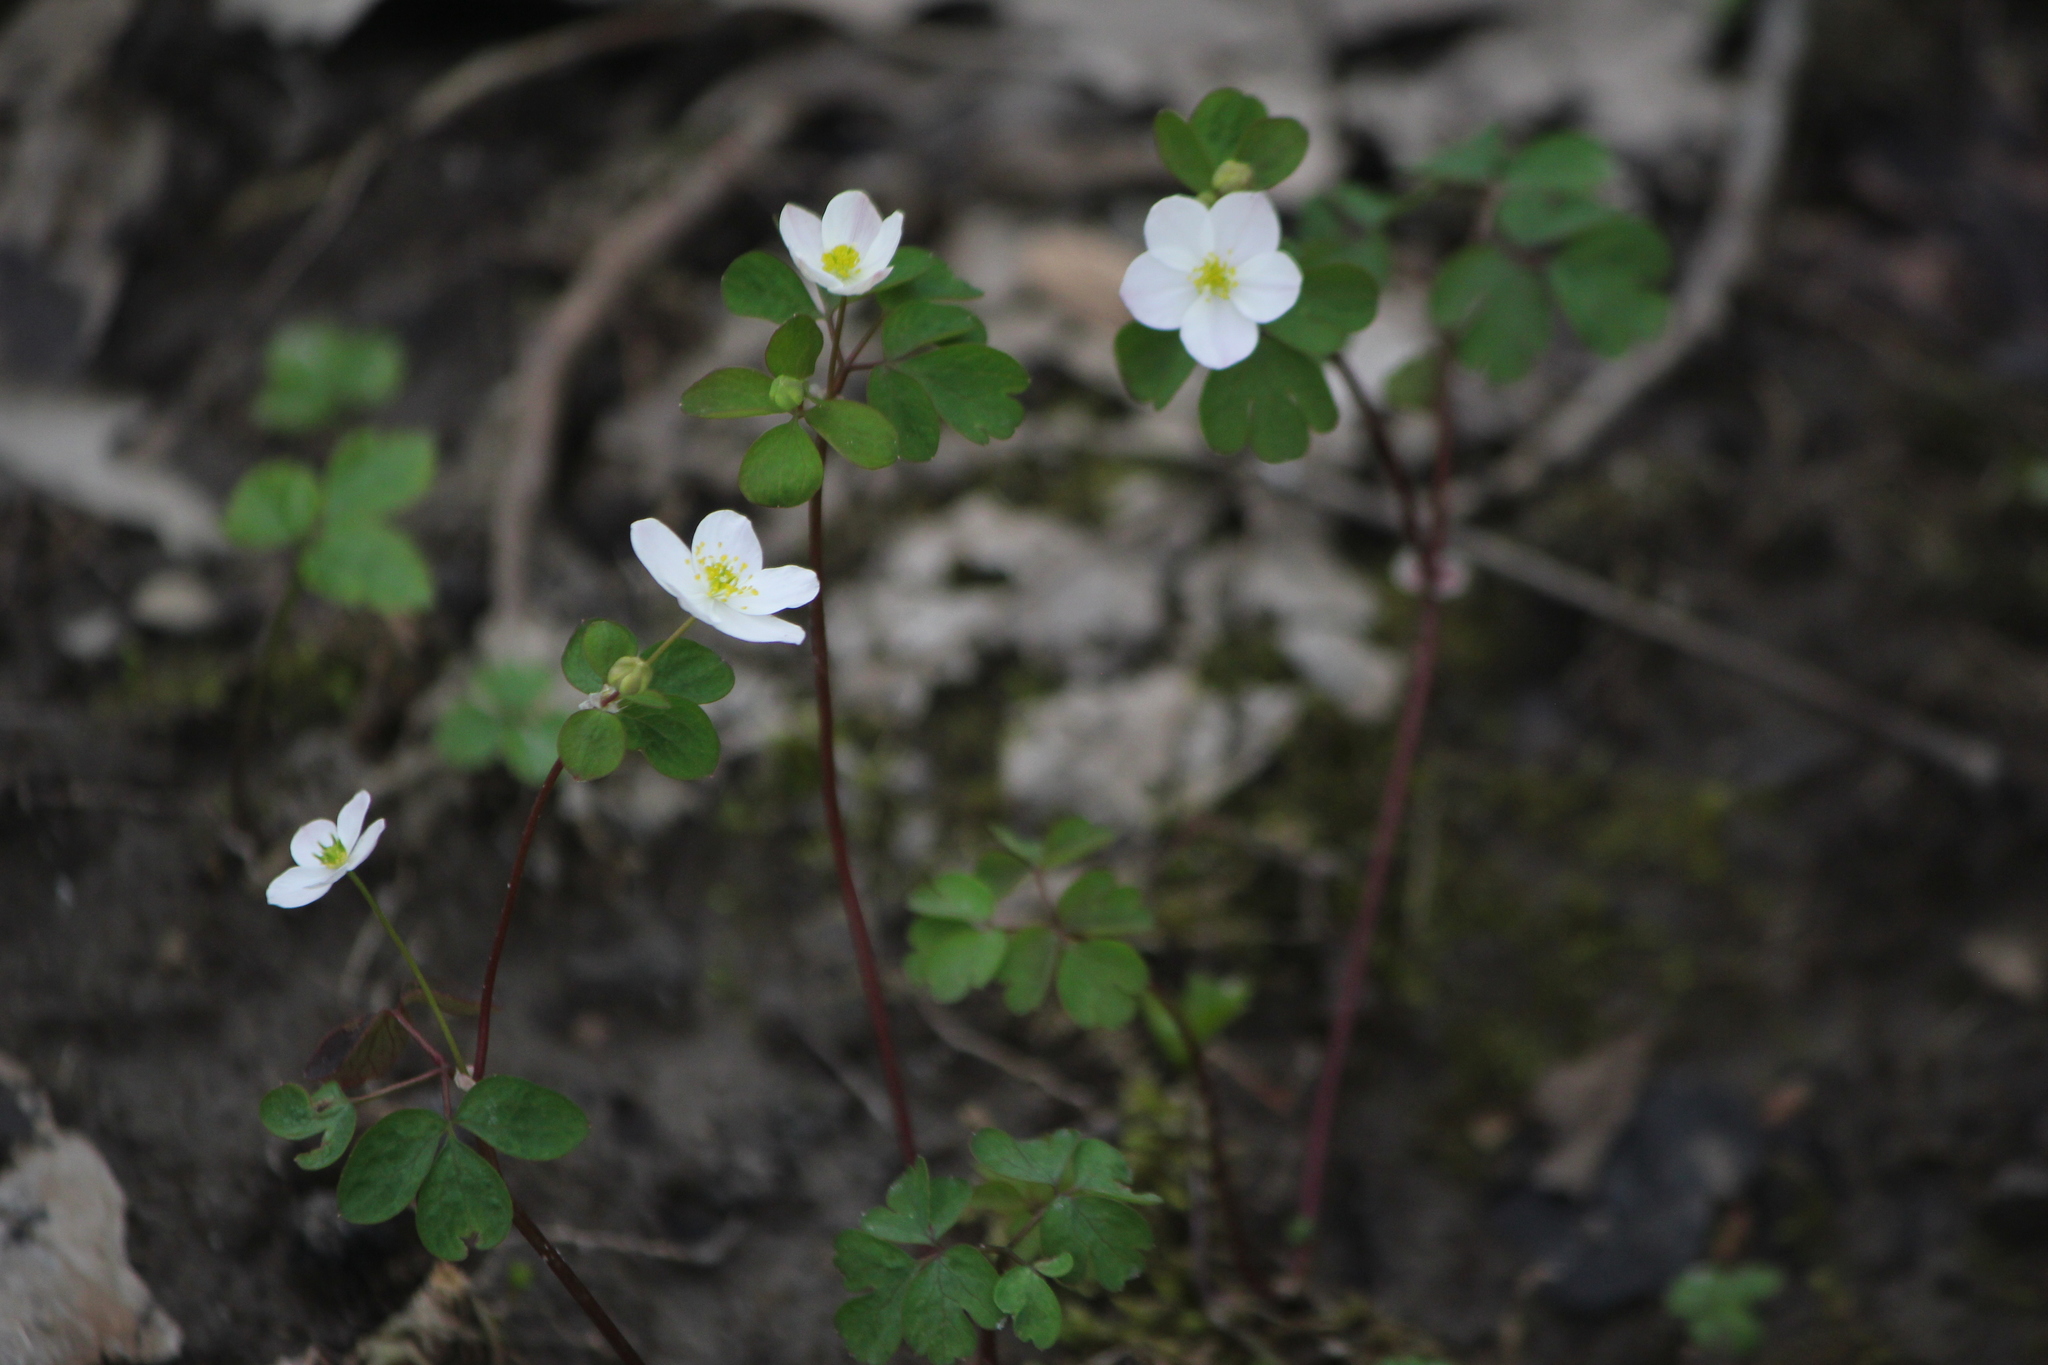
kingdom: Plantae
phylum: Tracheophyta
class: Magnoliopsida
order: Ranunculales
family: Ranunculaceae
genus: Enemion
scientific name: Enemion biternatum
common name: Eastern false rue-anemone
